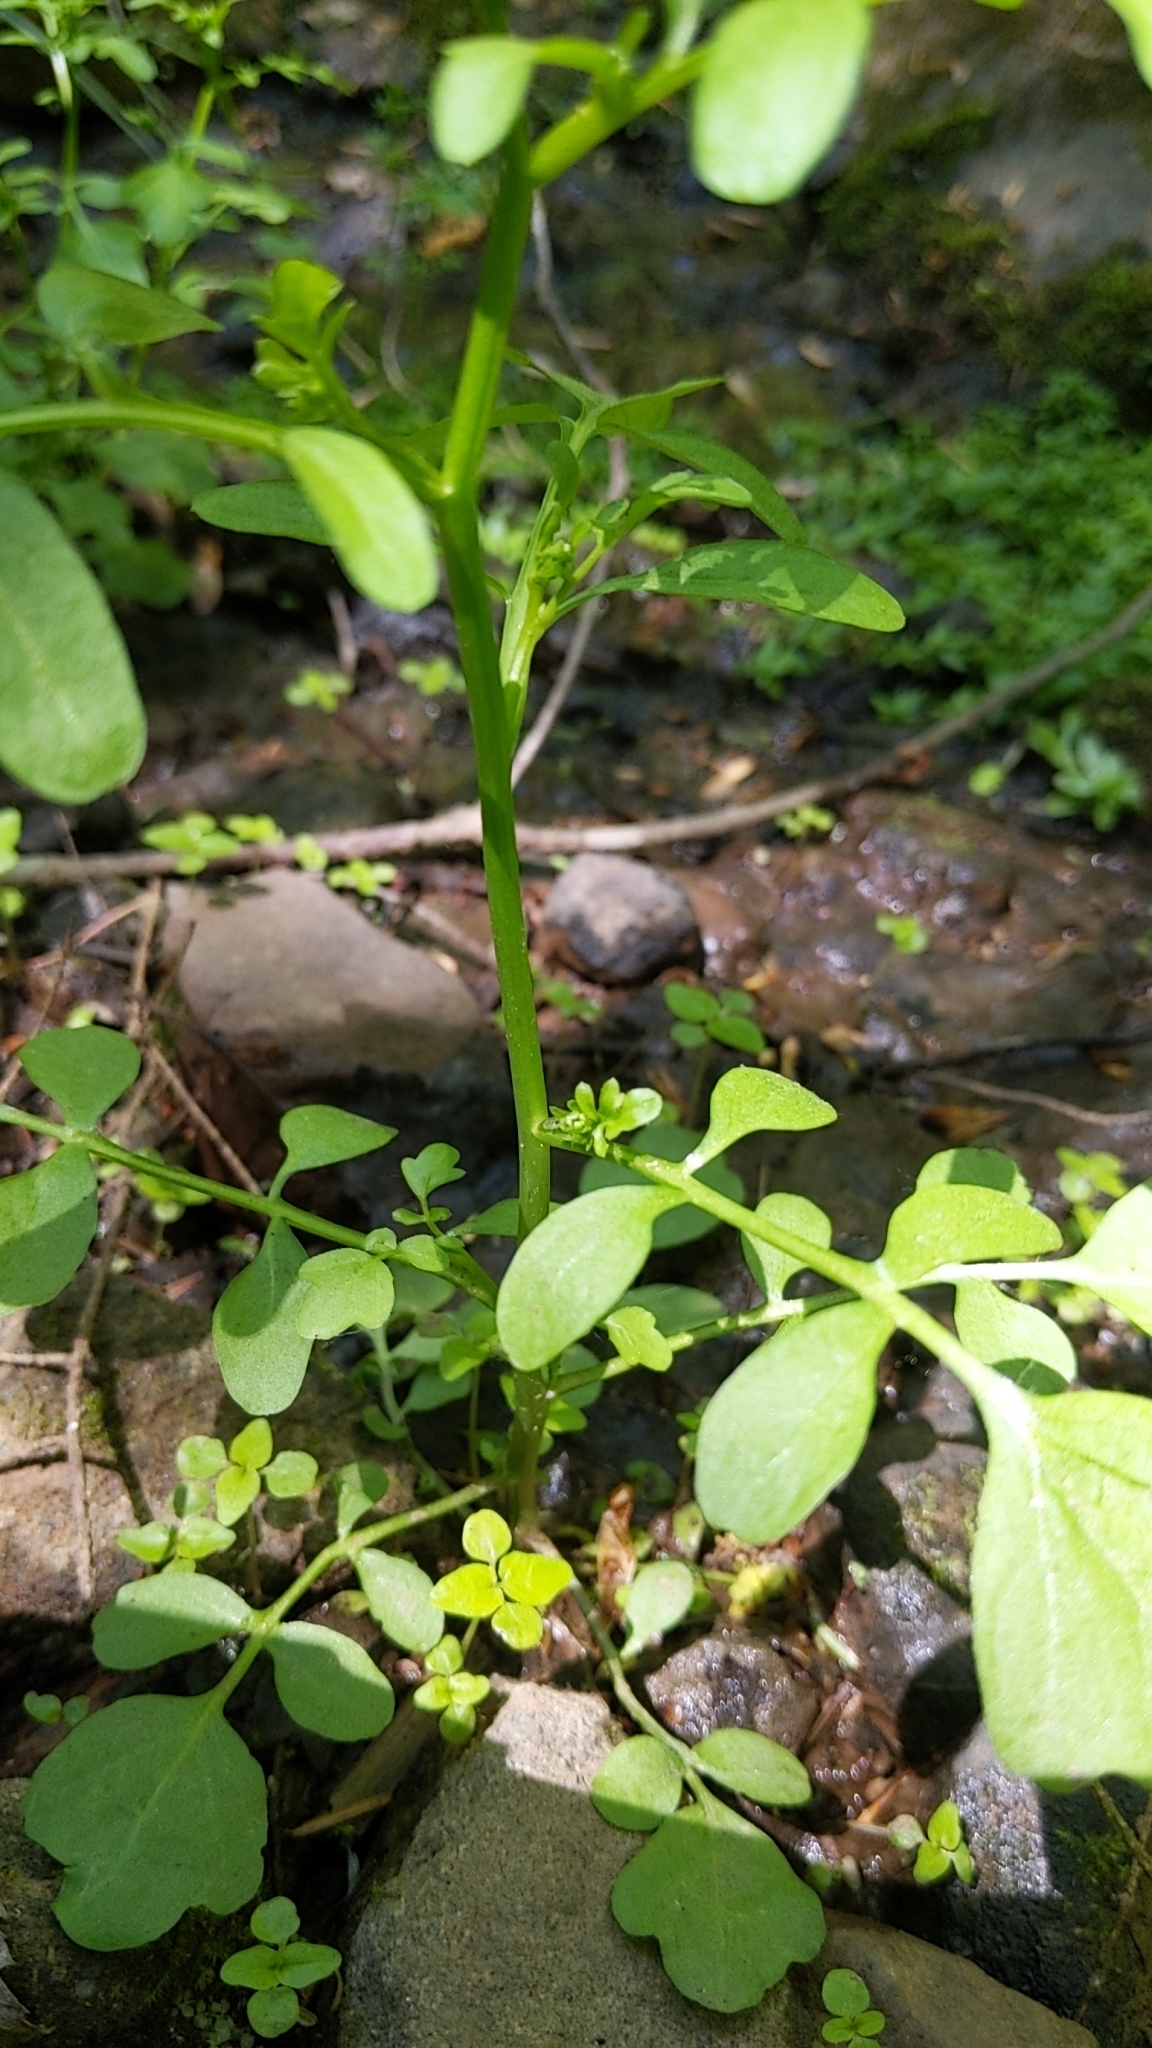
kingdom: Plantae
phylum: Tracheophyta
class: Magnoliopsida
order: Brassicales
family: Brassicaceae
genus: Cardamine
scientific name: Cardamine pensylvanica
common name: Pennsylvania bittercress
